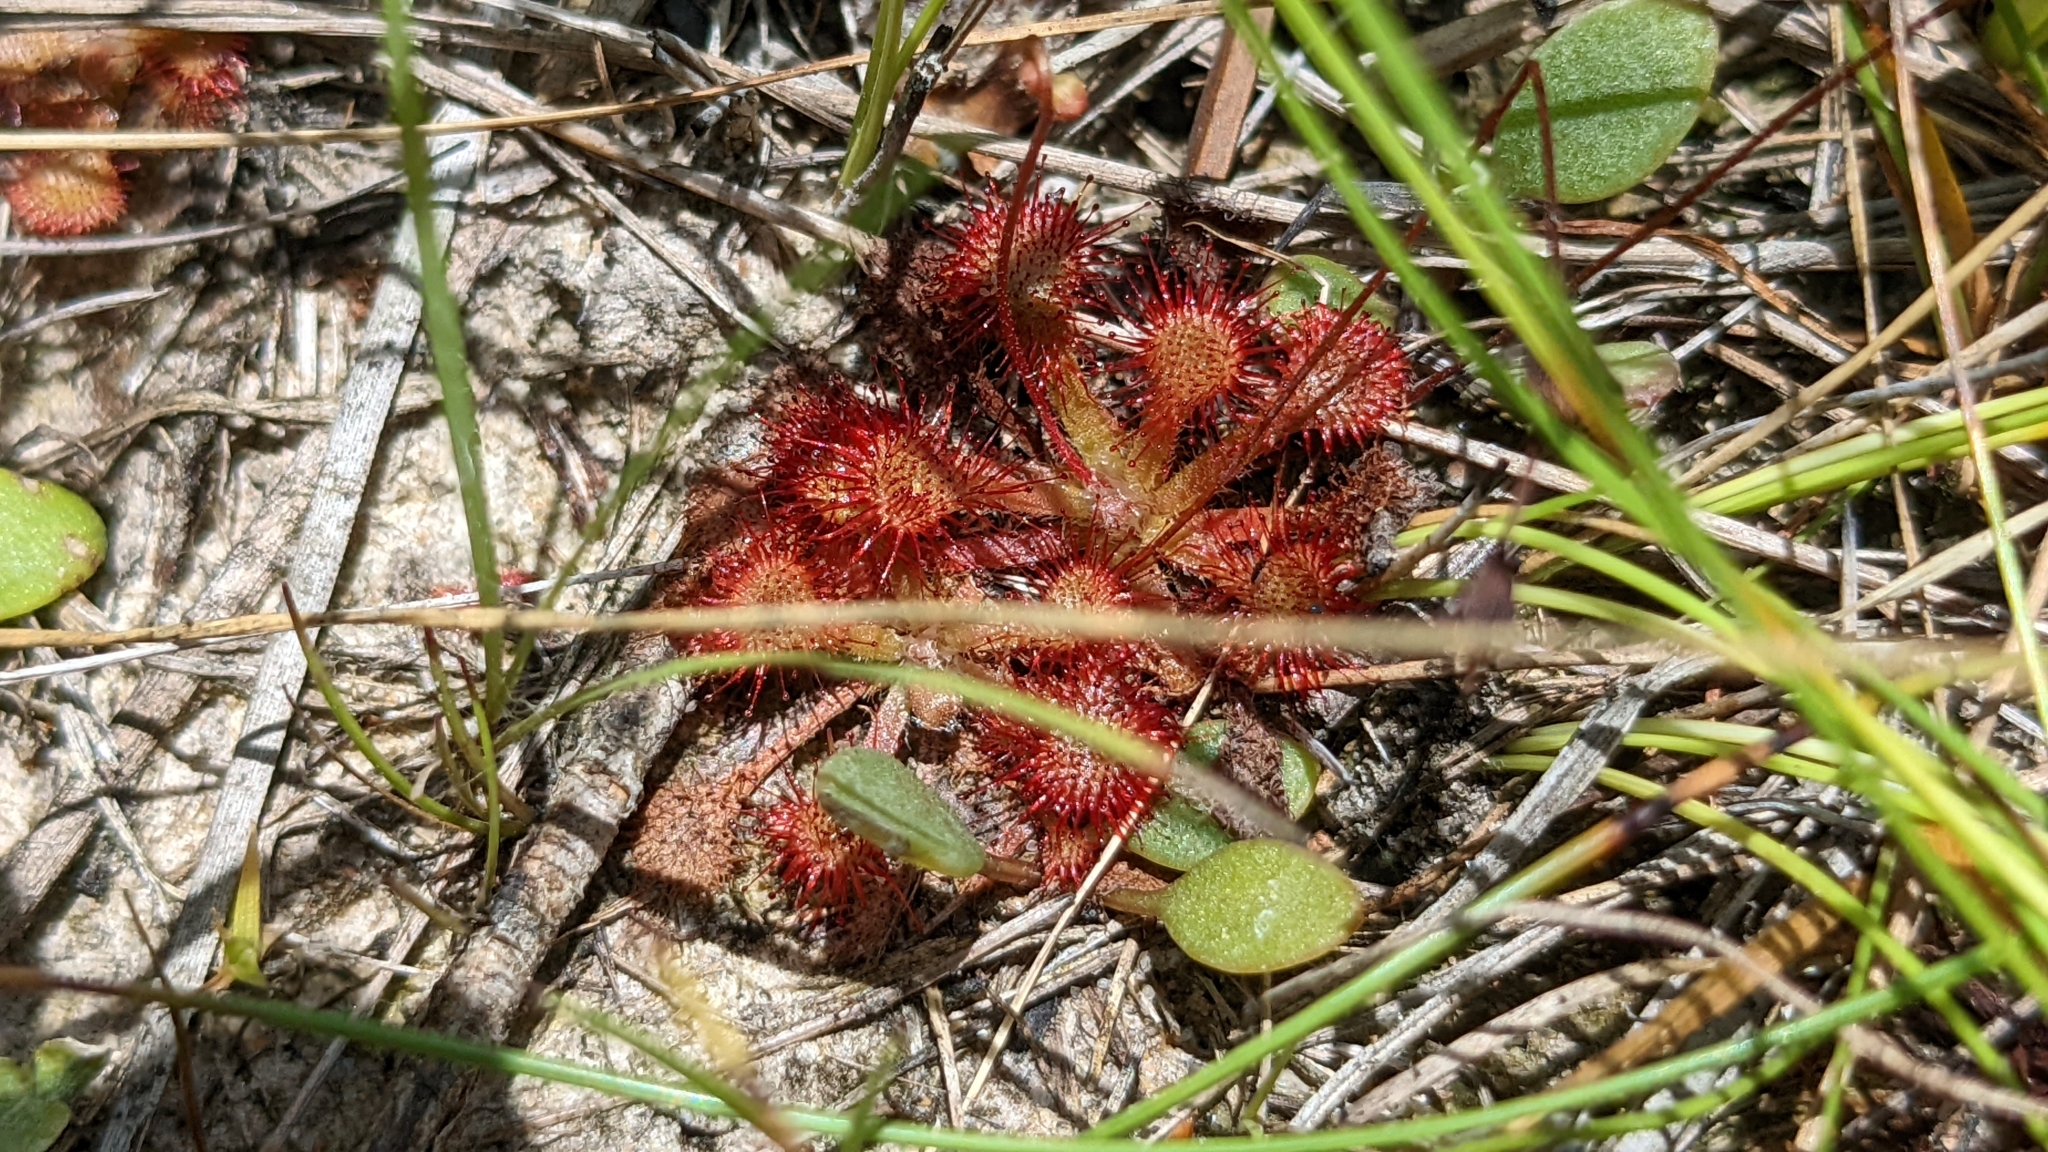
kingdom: Plantae
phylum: Tracheophyta
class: Magnoliopsida
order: Caryophyllales
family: Droseraceae
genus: Drosera
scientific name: Drosera capillaris
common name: Pink sundew
